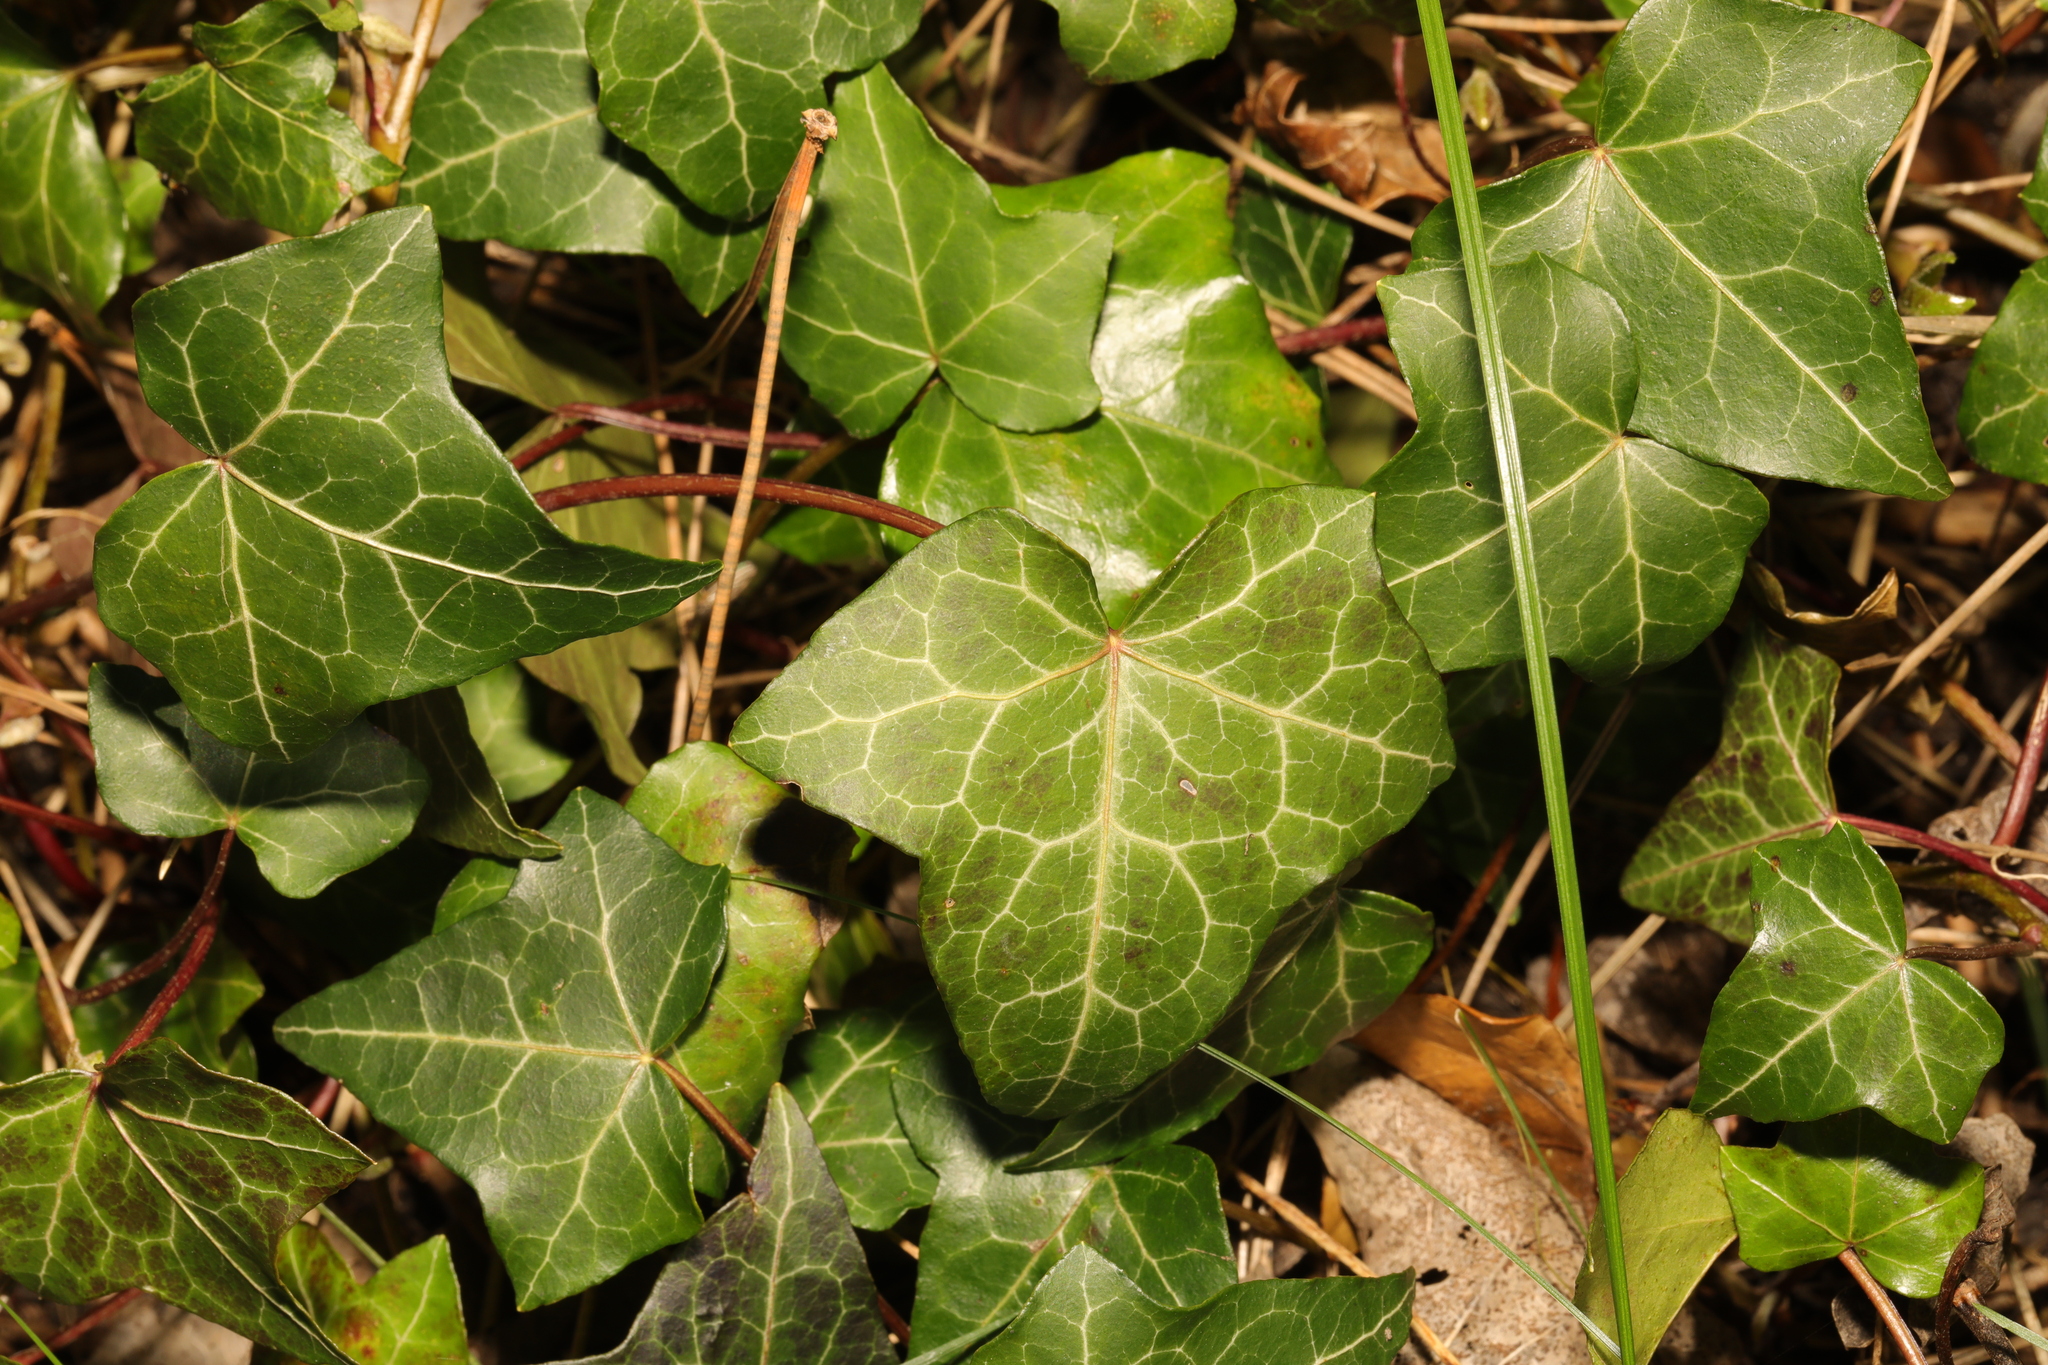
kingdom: Plantae
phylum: Tracheophyta
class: Magnoliopsida
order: Apiales
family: Araliaceae
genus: Hedera
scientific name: Hedera helix
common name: Ivy
